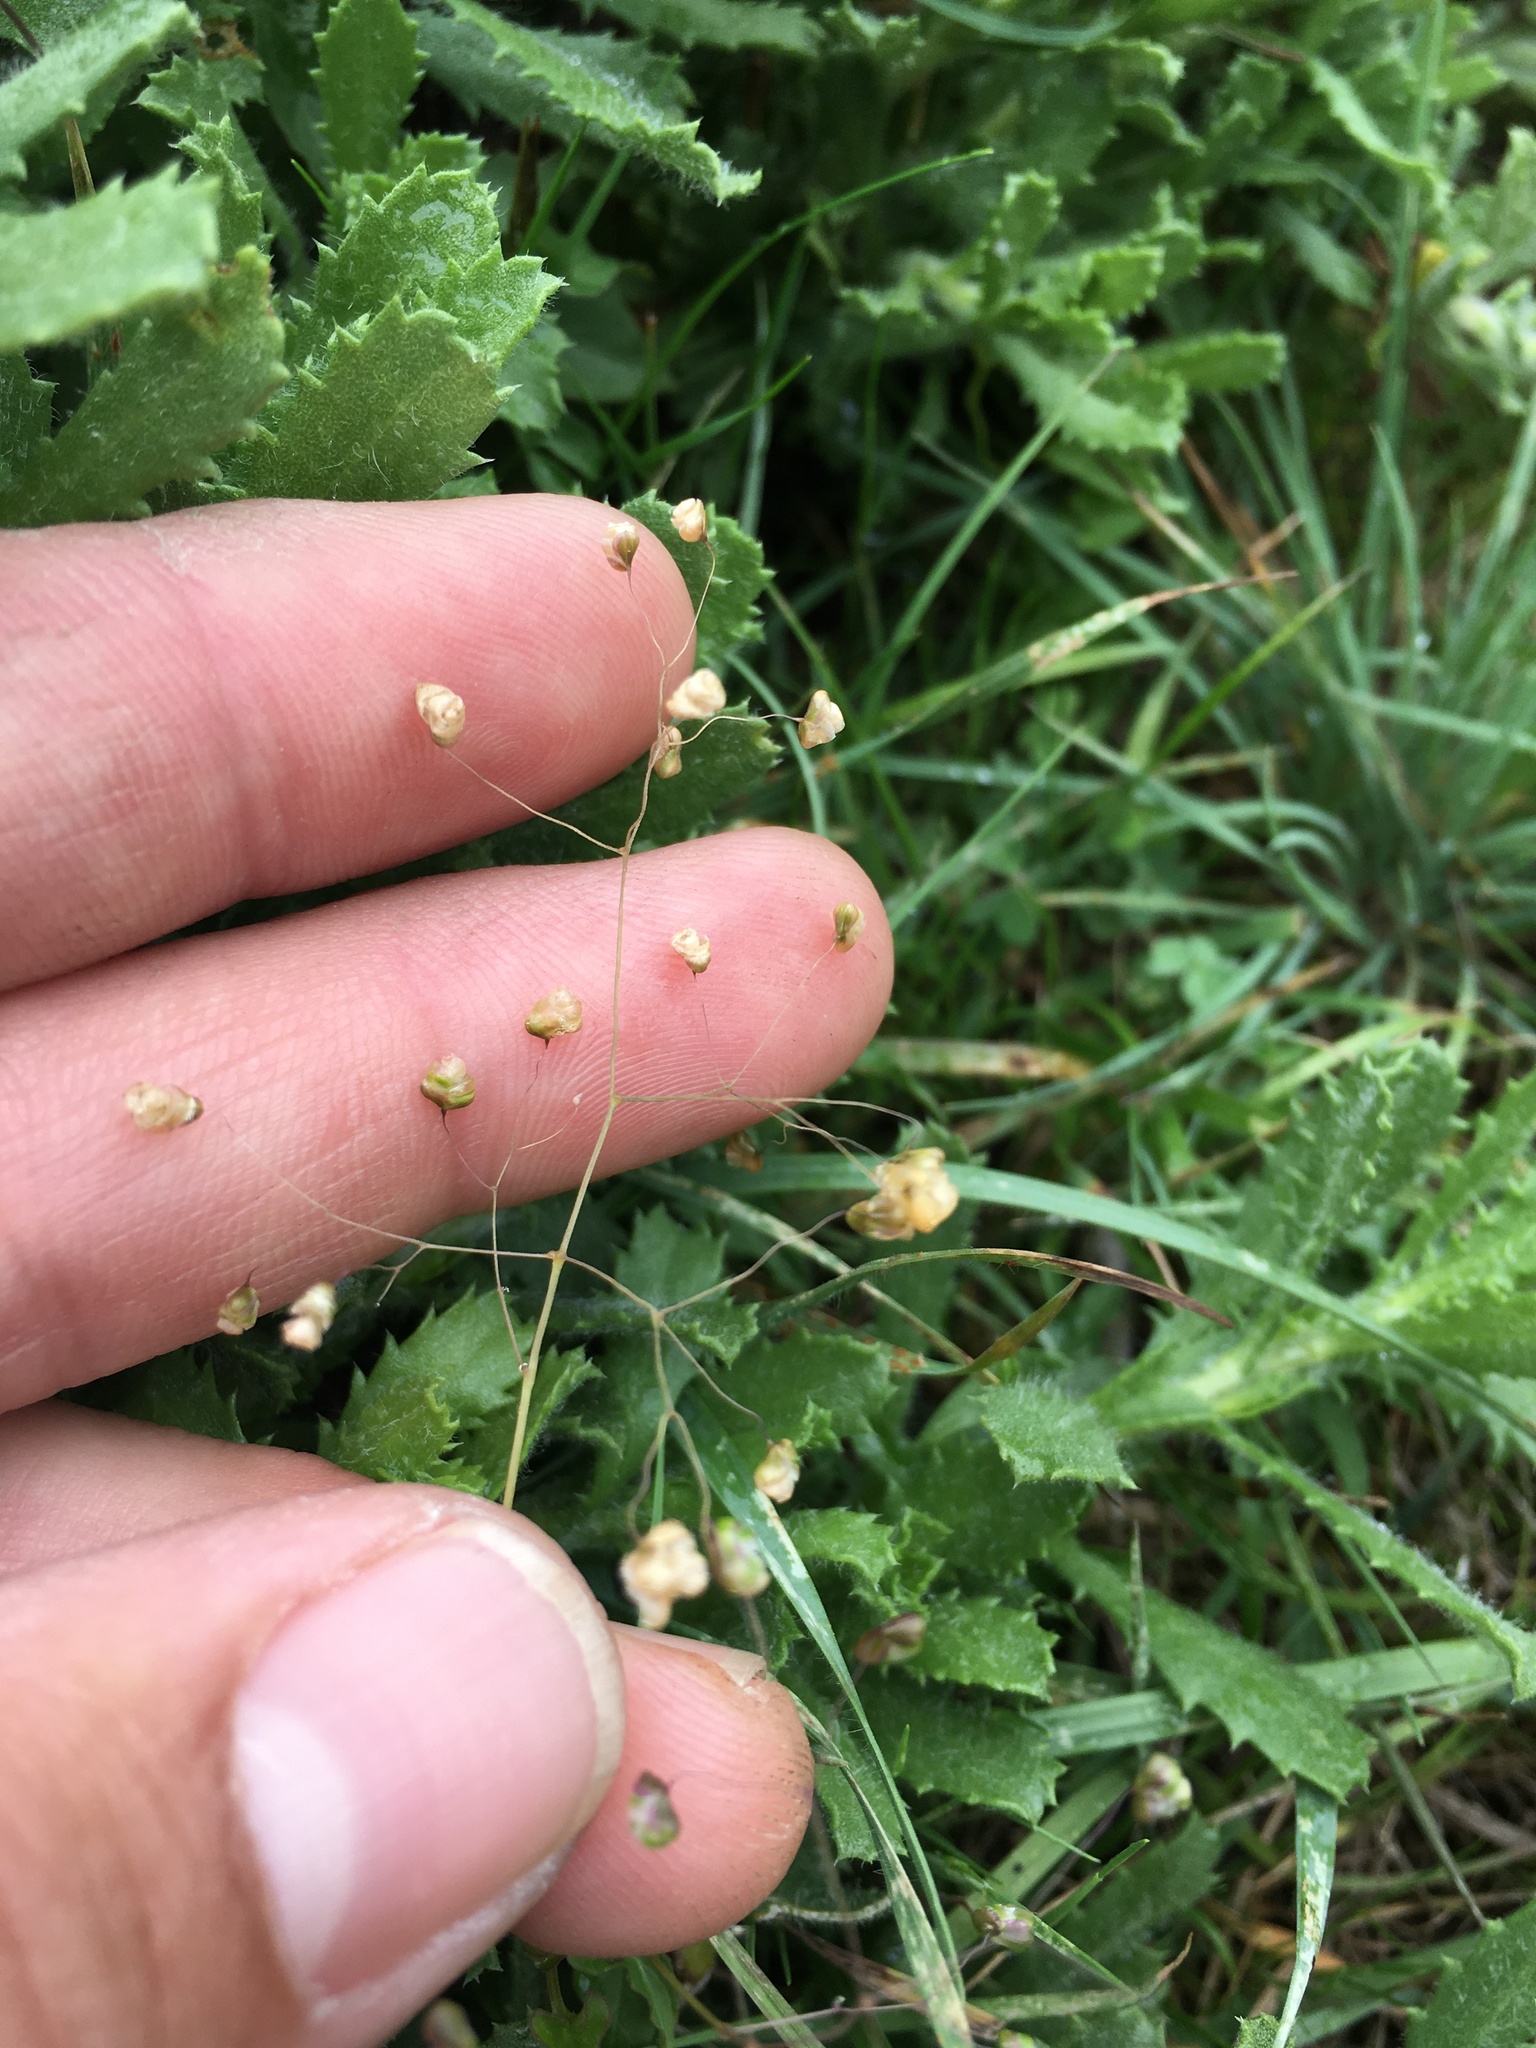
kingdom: Plantae
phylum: Tracheophyta
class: Liliopsida
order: Poales
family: Poaceae
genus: Briza
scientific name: Briza minor
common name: Lesser quaking-grass
